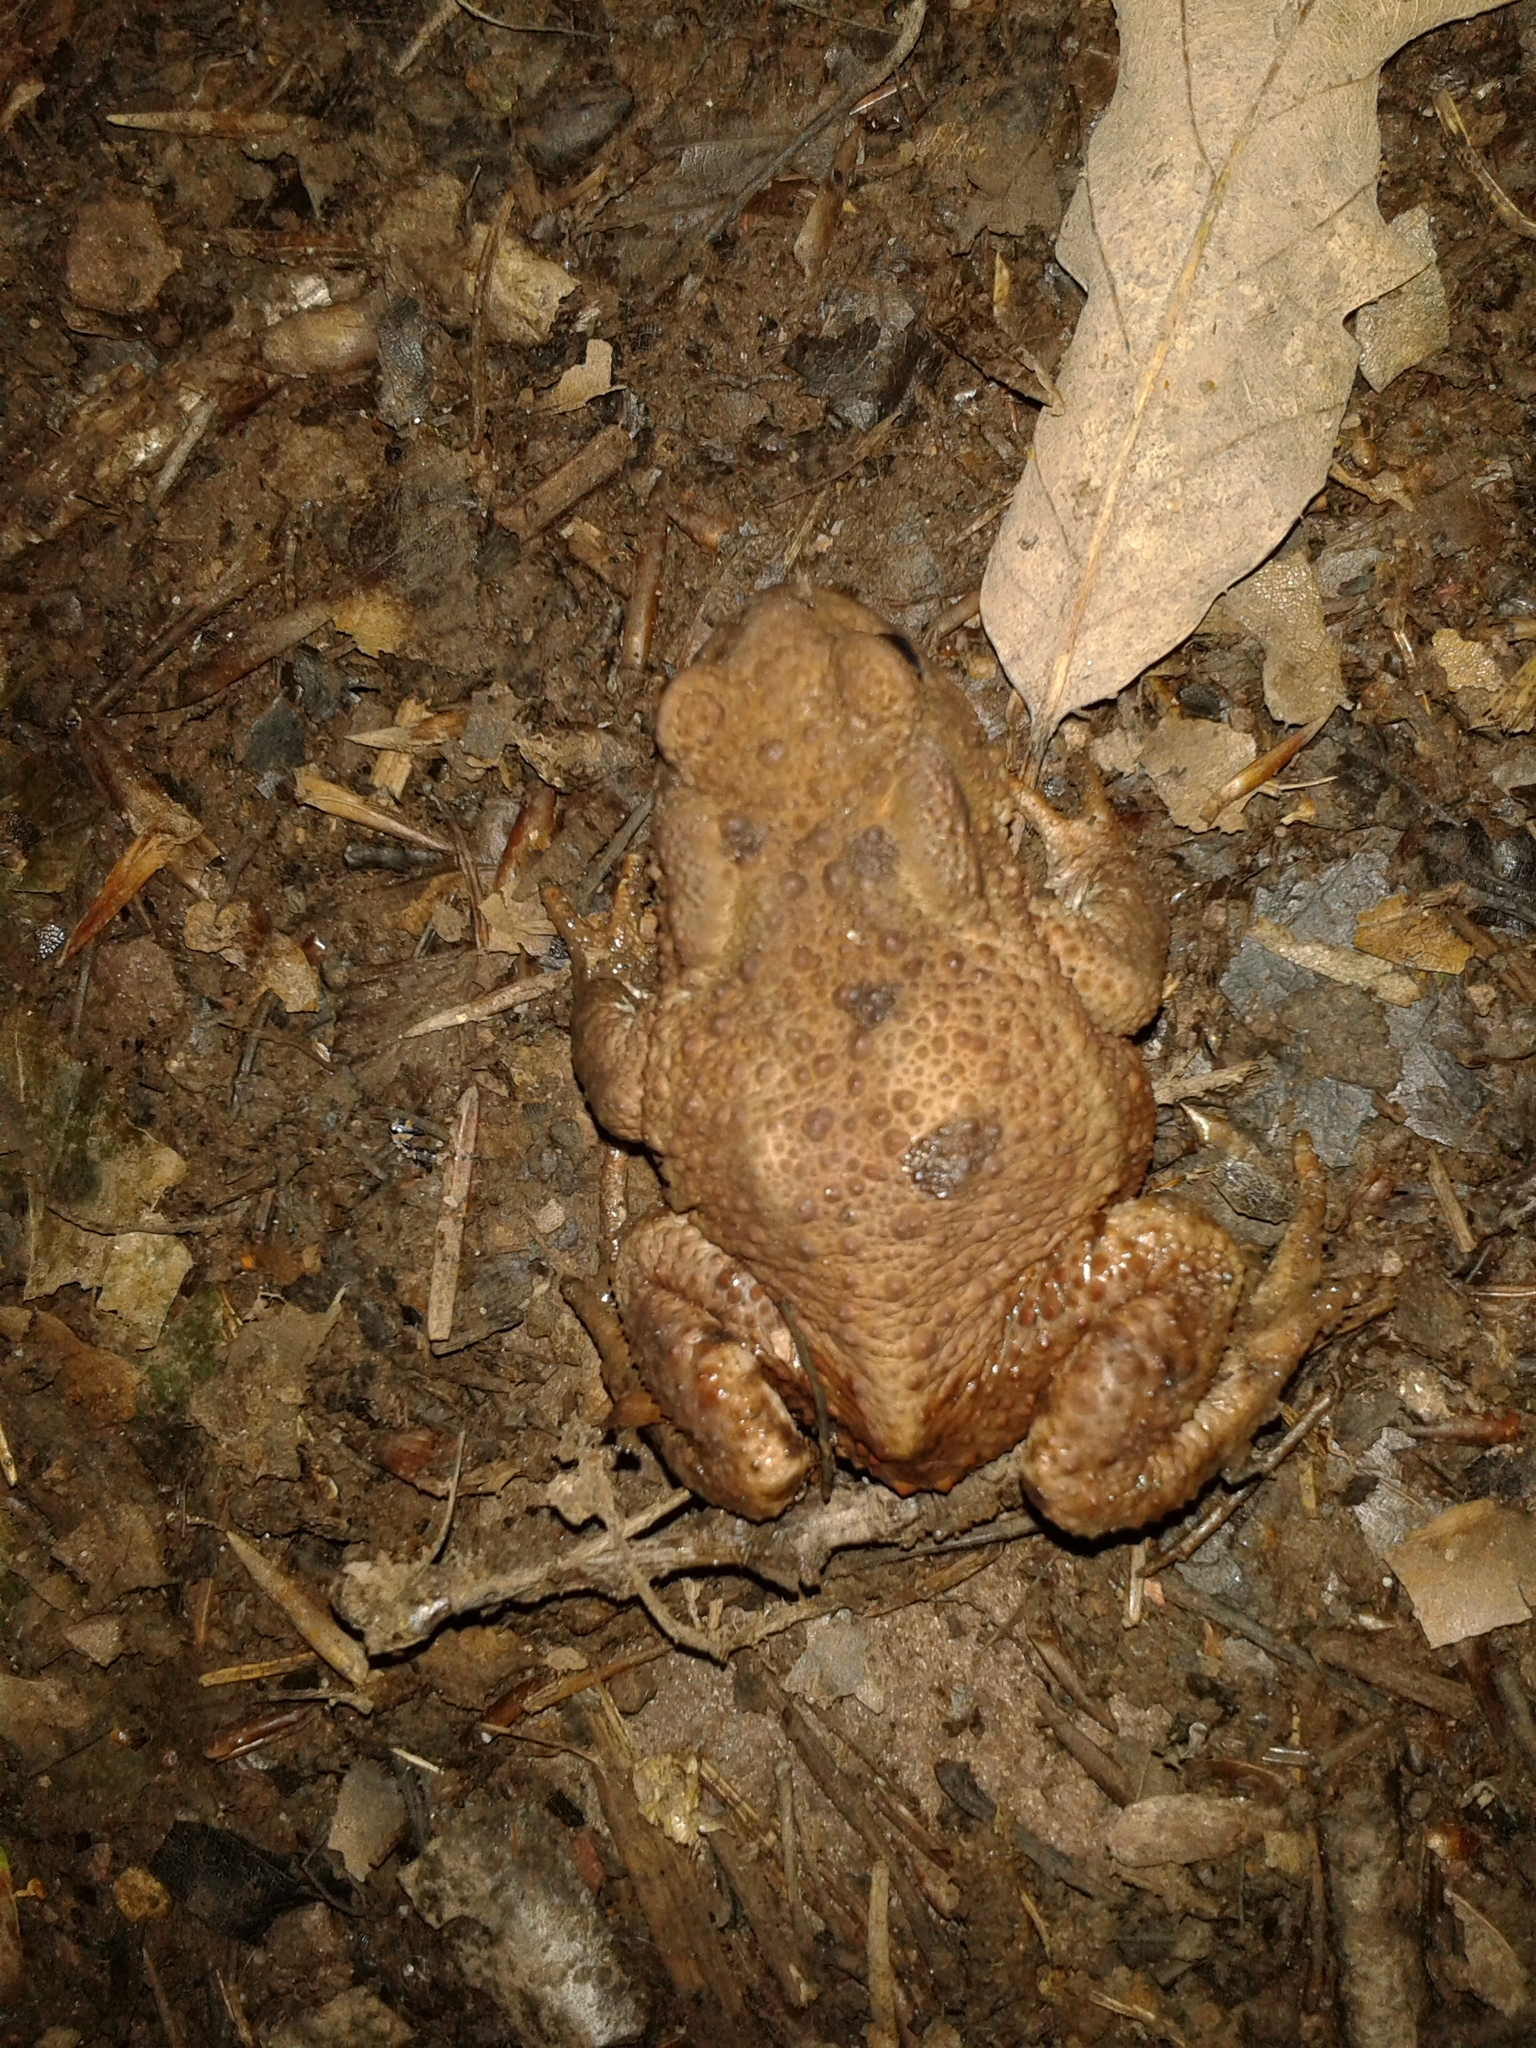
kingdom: Animalia
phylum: Chordata
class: Amphibia
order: Anura
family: Bufonidae
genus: Bufo
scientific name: Bufo bufo
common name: Common toad
